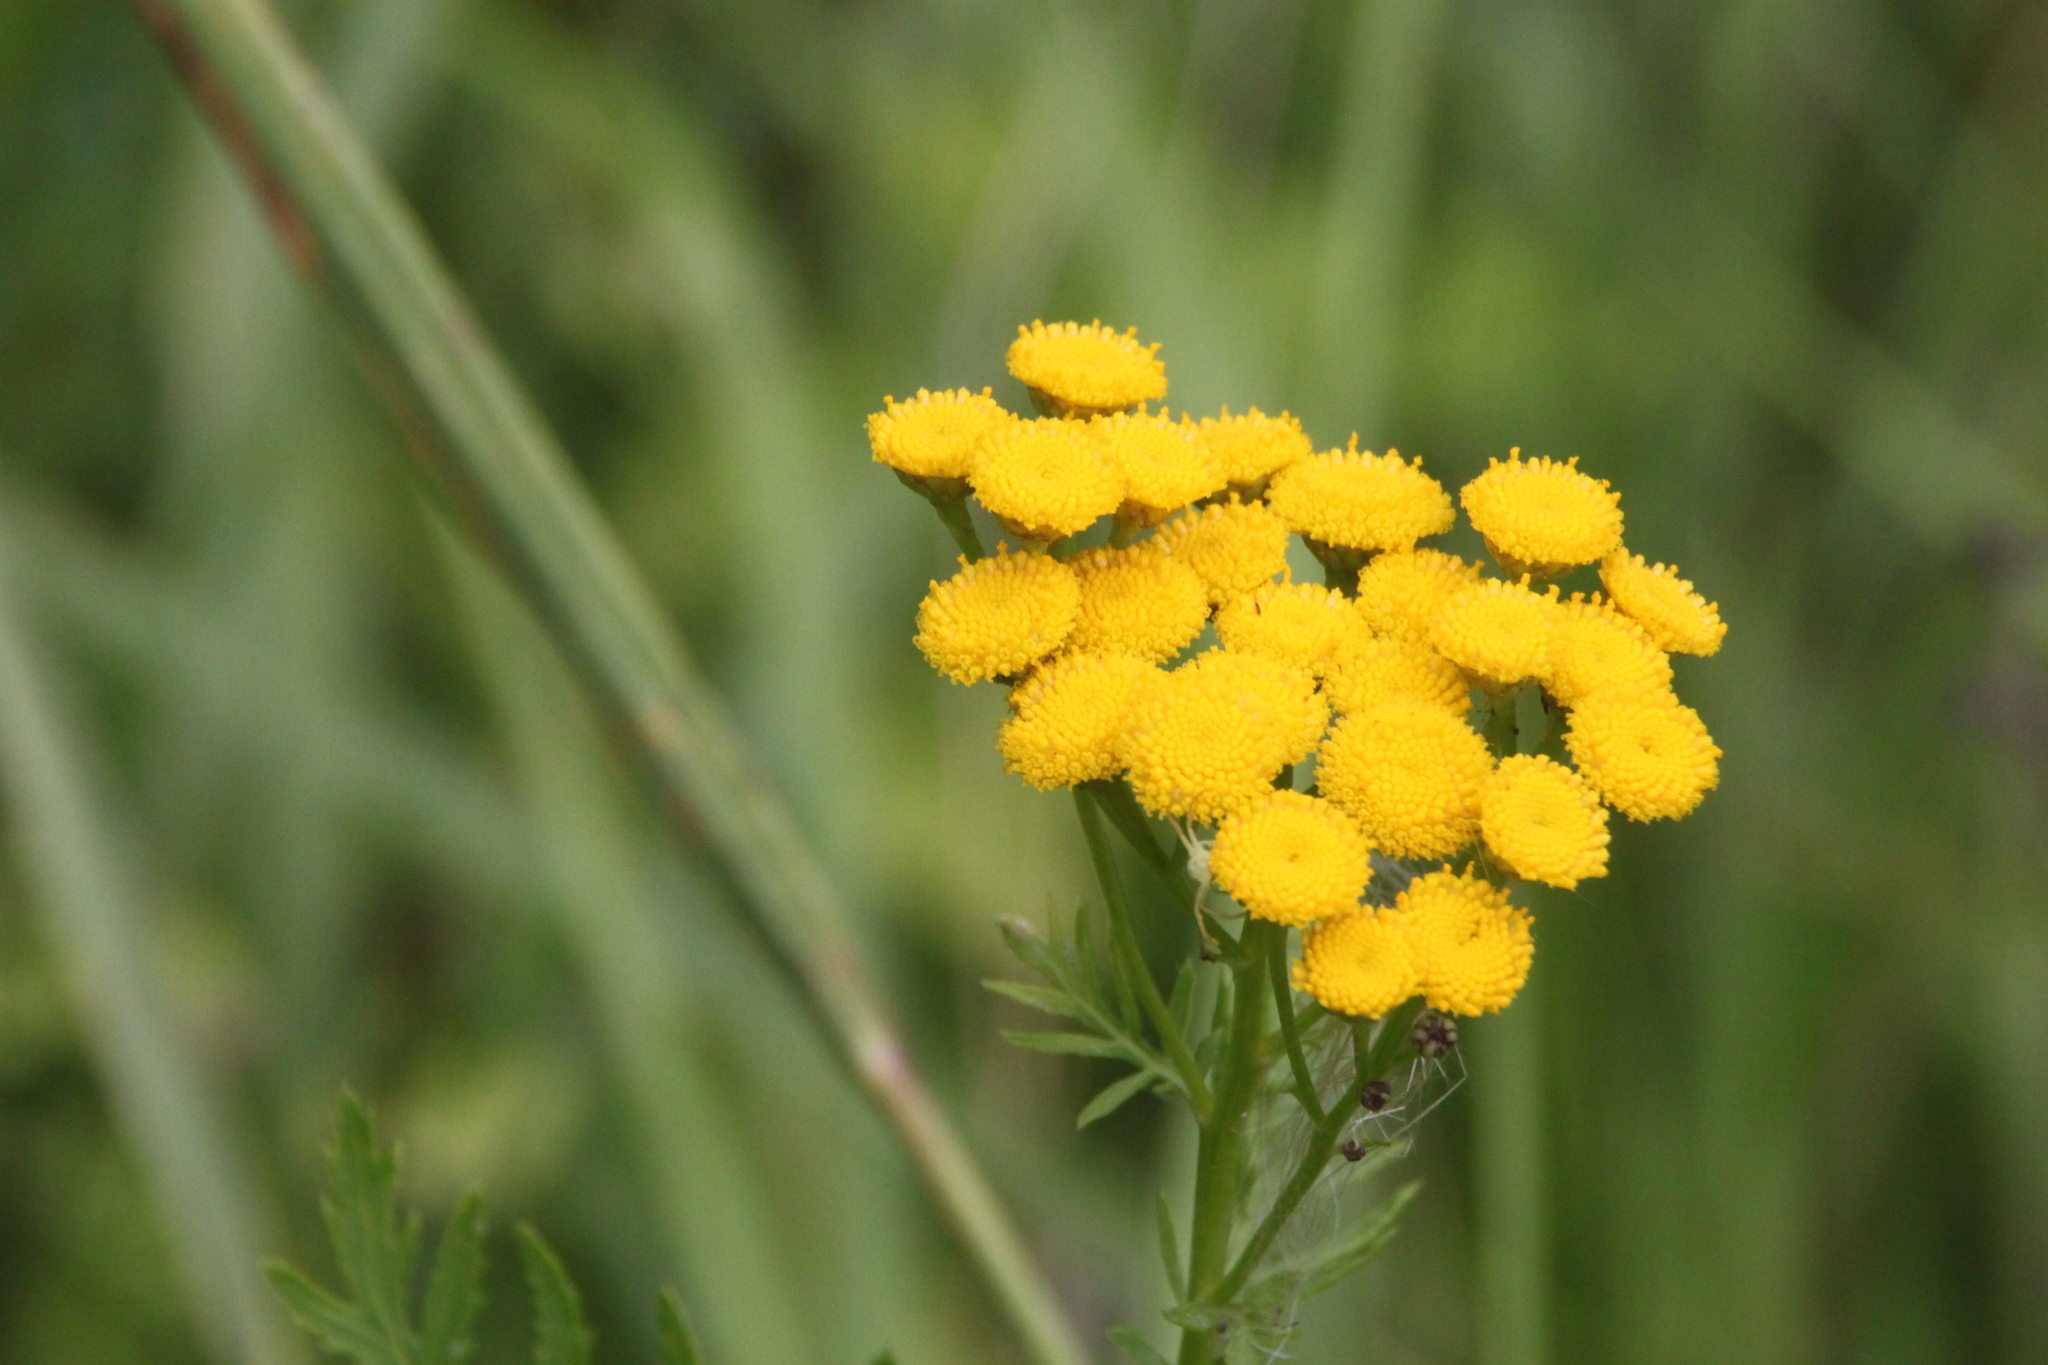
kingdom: Plantae
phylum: Tracheophyta
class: Magnoliopsida
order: Asterales
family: Asteraceae
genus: Tanacetum
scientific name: Tanacetum vulgare
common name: Common tansy
